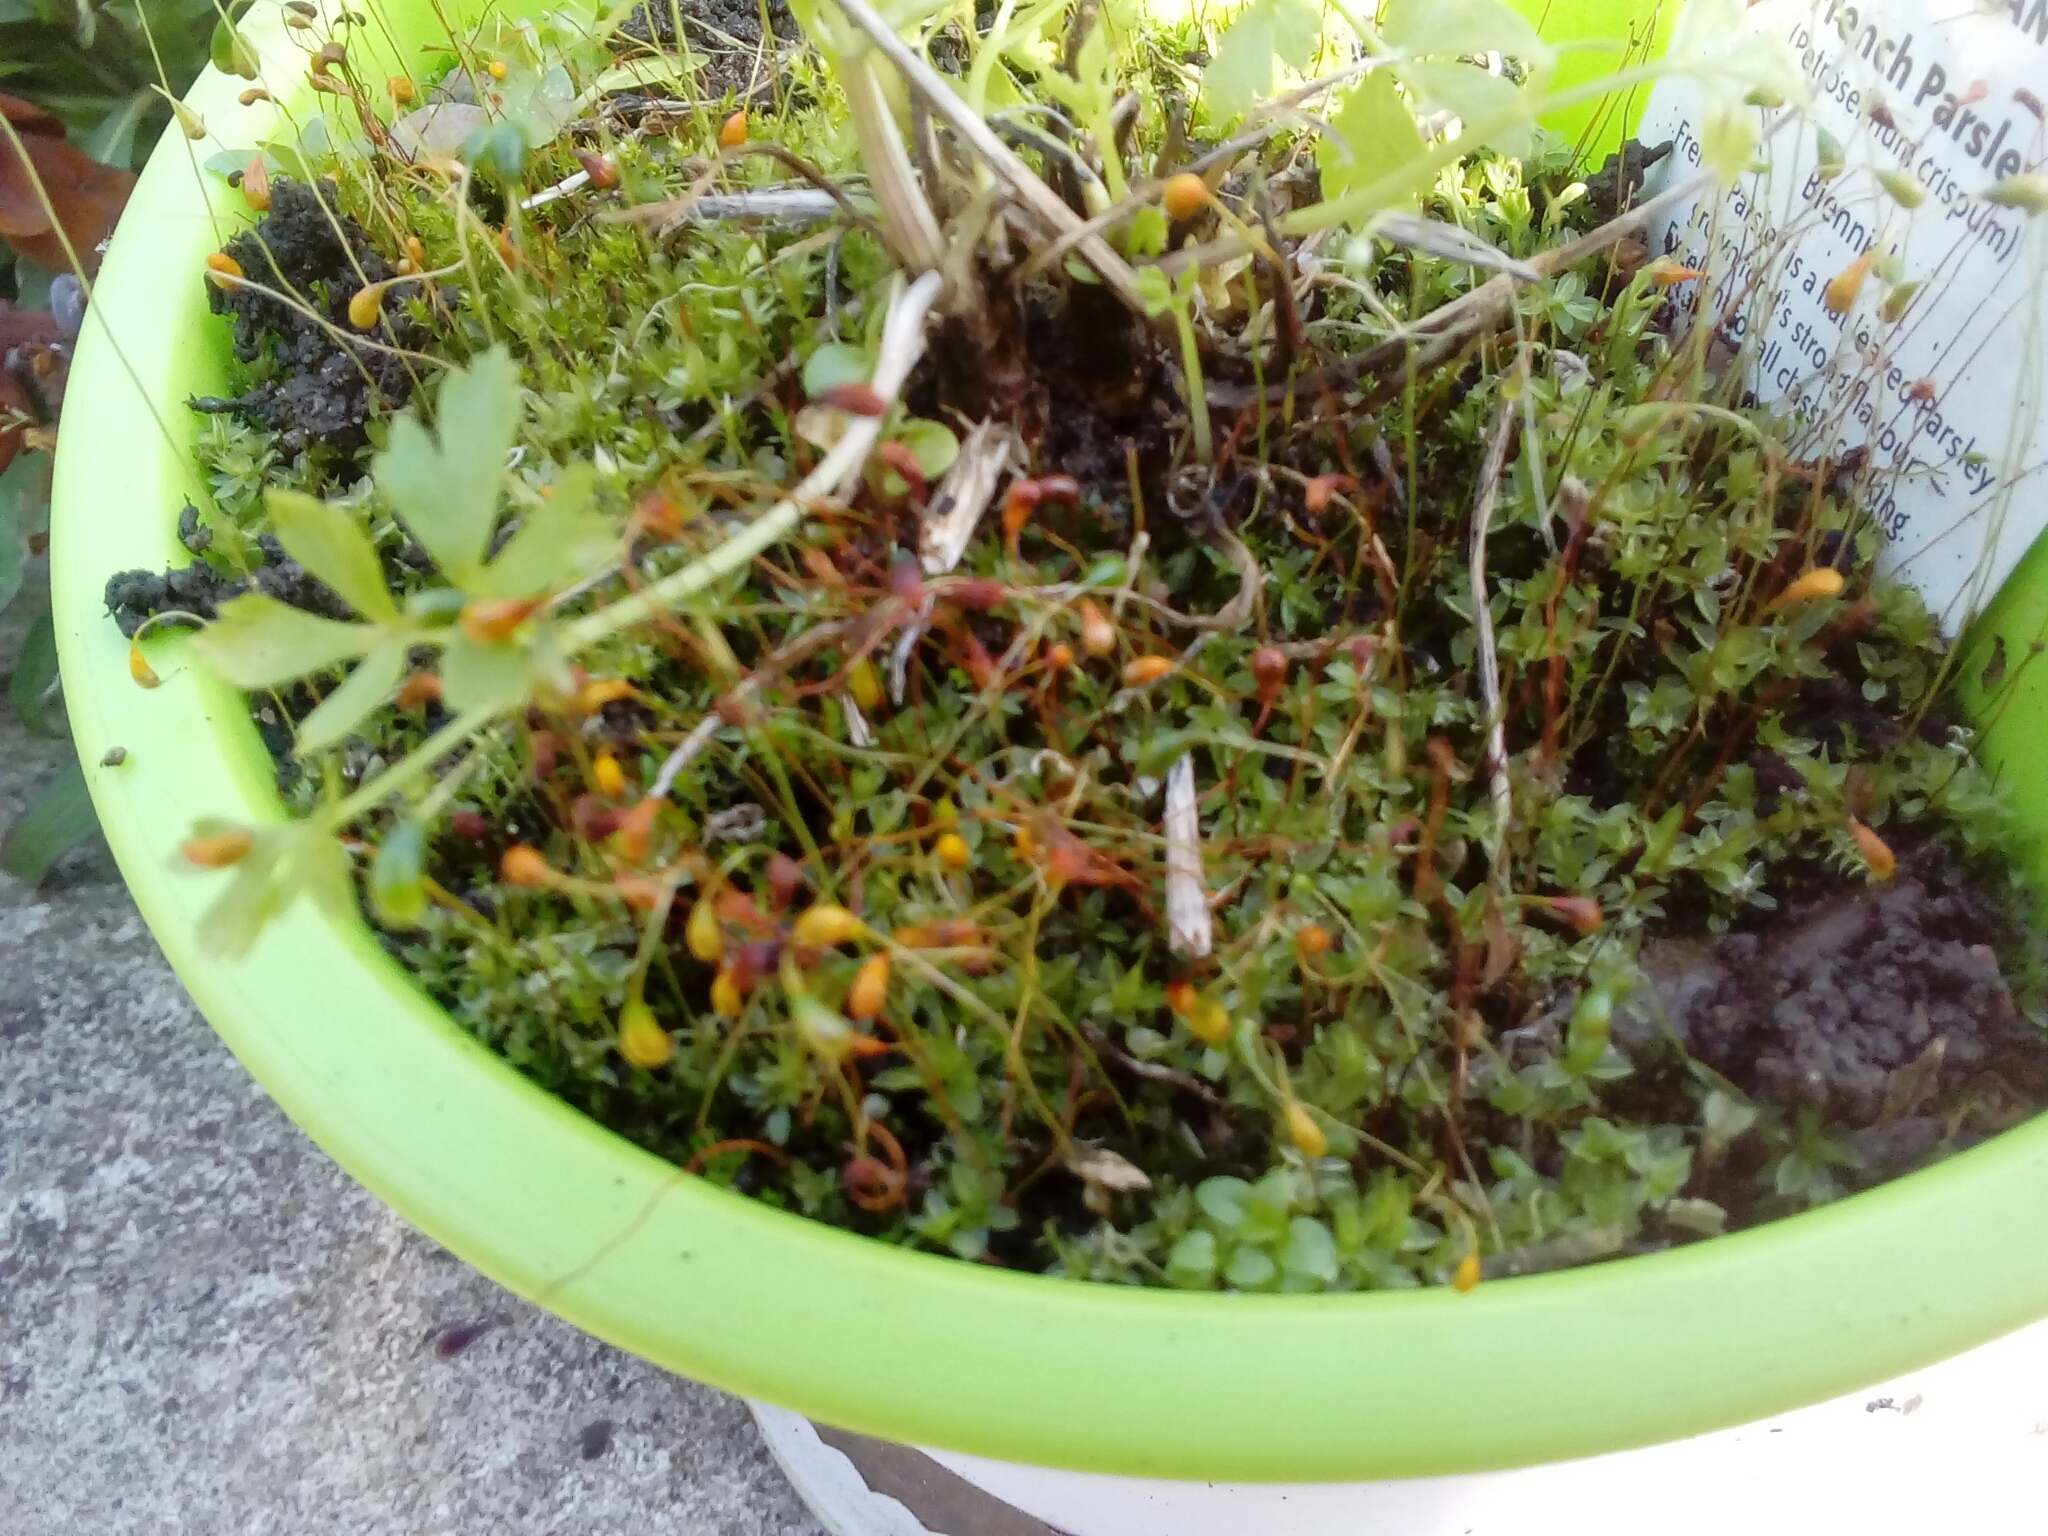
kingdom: Plantae
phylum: Bryophyta
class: Bryopsida
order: Funariales
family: Funariaceae
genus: Funaria
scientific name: Funaria hygrometrica
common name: Common cord moss
